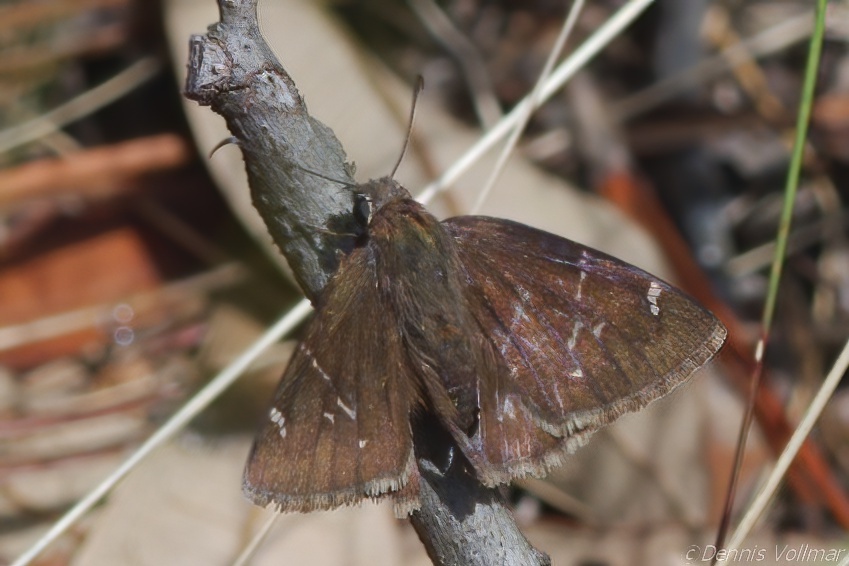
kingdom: Animalia
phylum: Arthropoda
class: Insecta
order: Lepidoptera
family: Hesperiidae
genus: Thorybes
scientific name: Thorybes mexicana
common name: Mexican cloudywing
